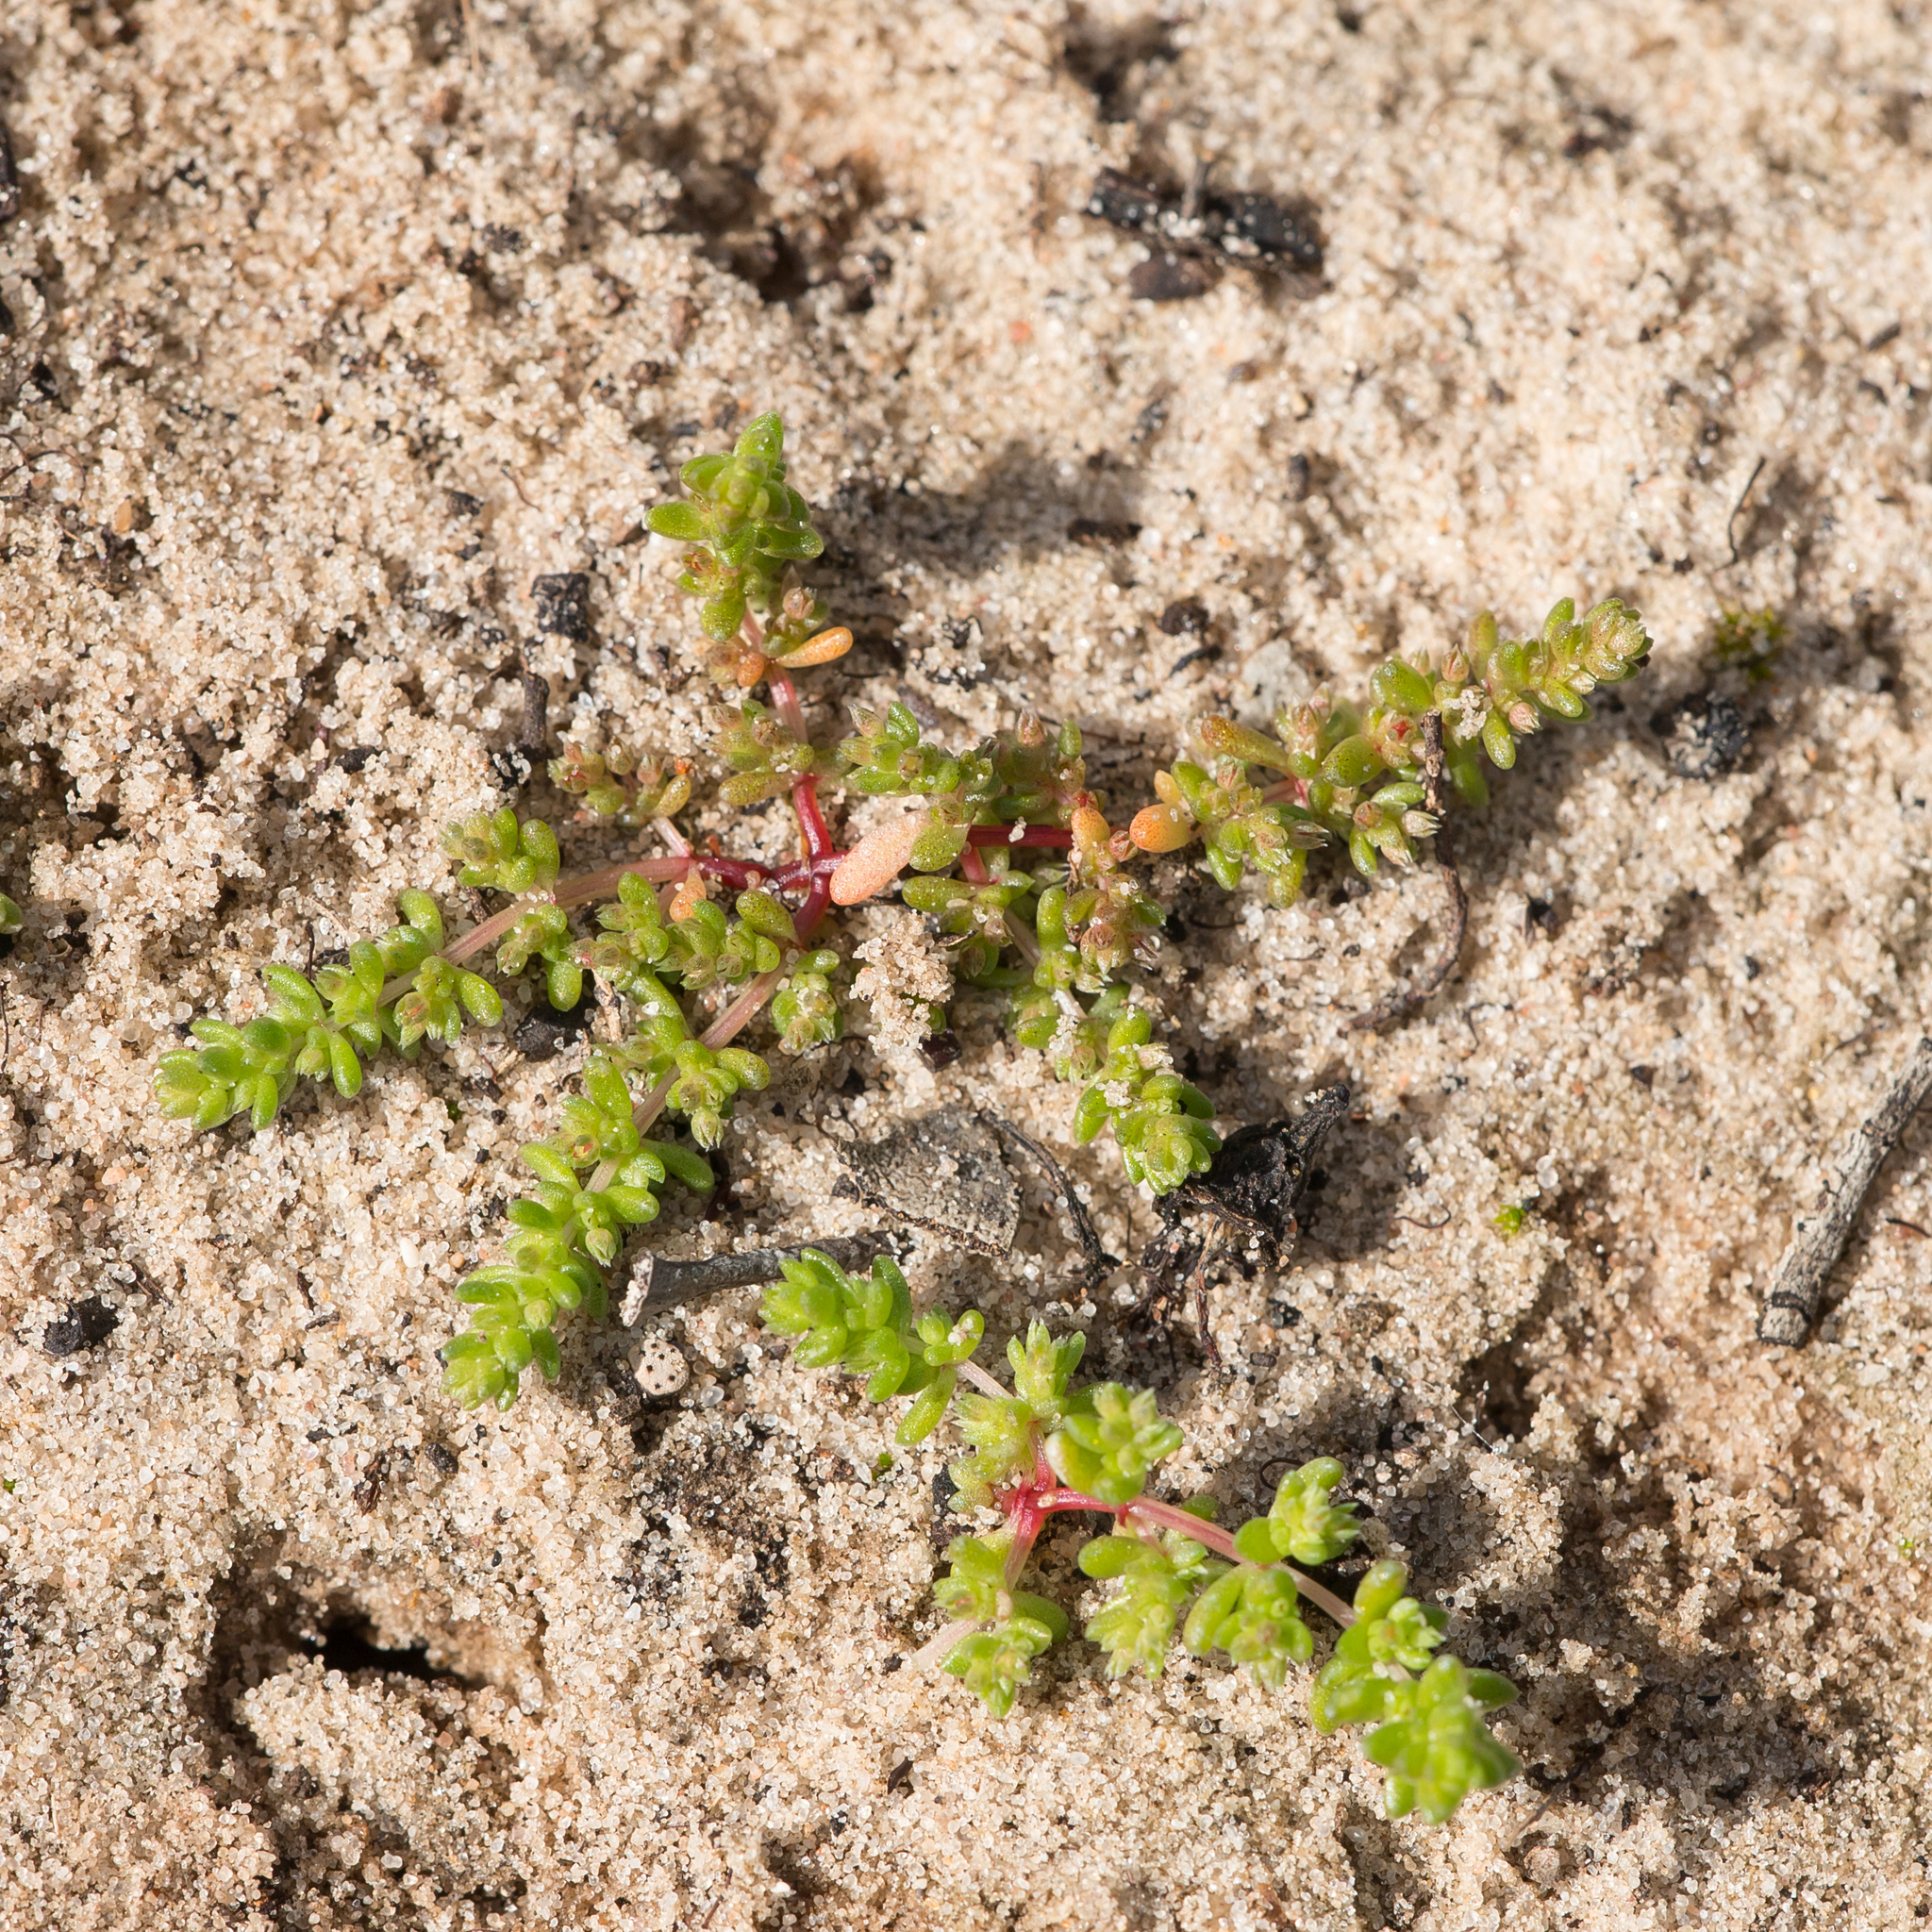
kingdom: Plantae
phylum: Tracheophyta
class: Magnoliopsida
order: Saxifragales
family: Crassulaceae
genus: Crassula
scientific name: Crassula decumbens
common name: Scilly pigmyweed
